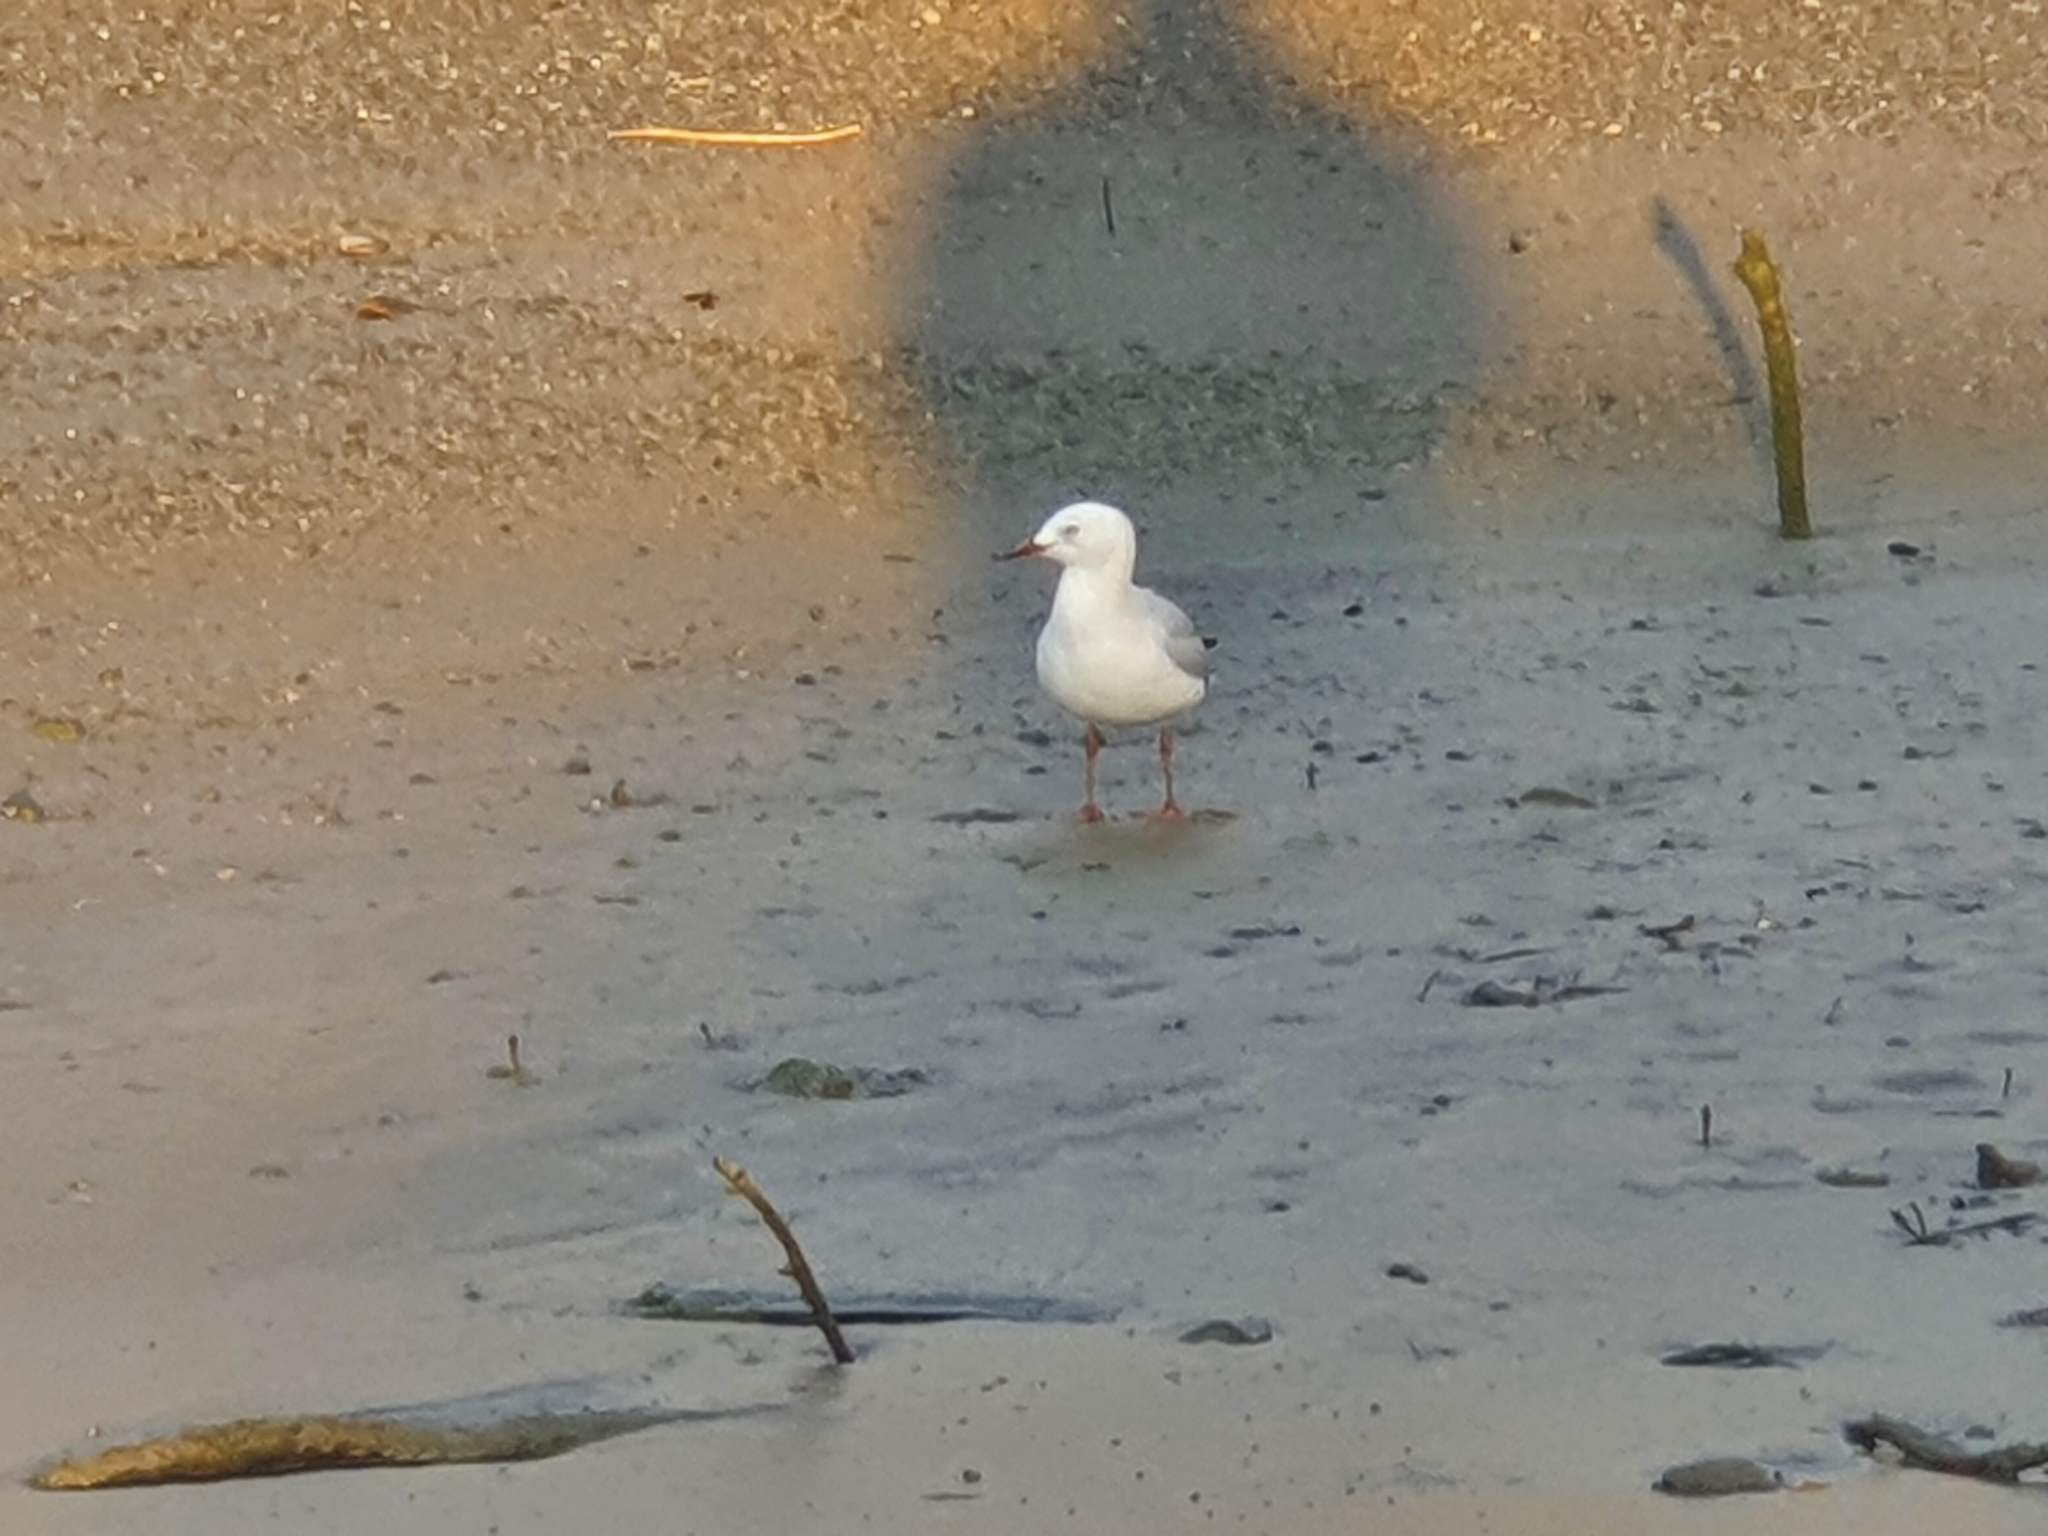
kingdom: Animalia
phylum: Chordata
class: Aves
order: Charadriiformes
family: Laridae
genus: Chroicocephalus
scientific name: Chroicocephalus novaehollandiae
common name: Silver gull
